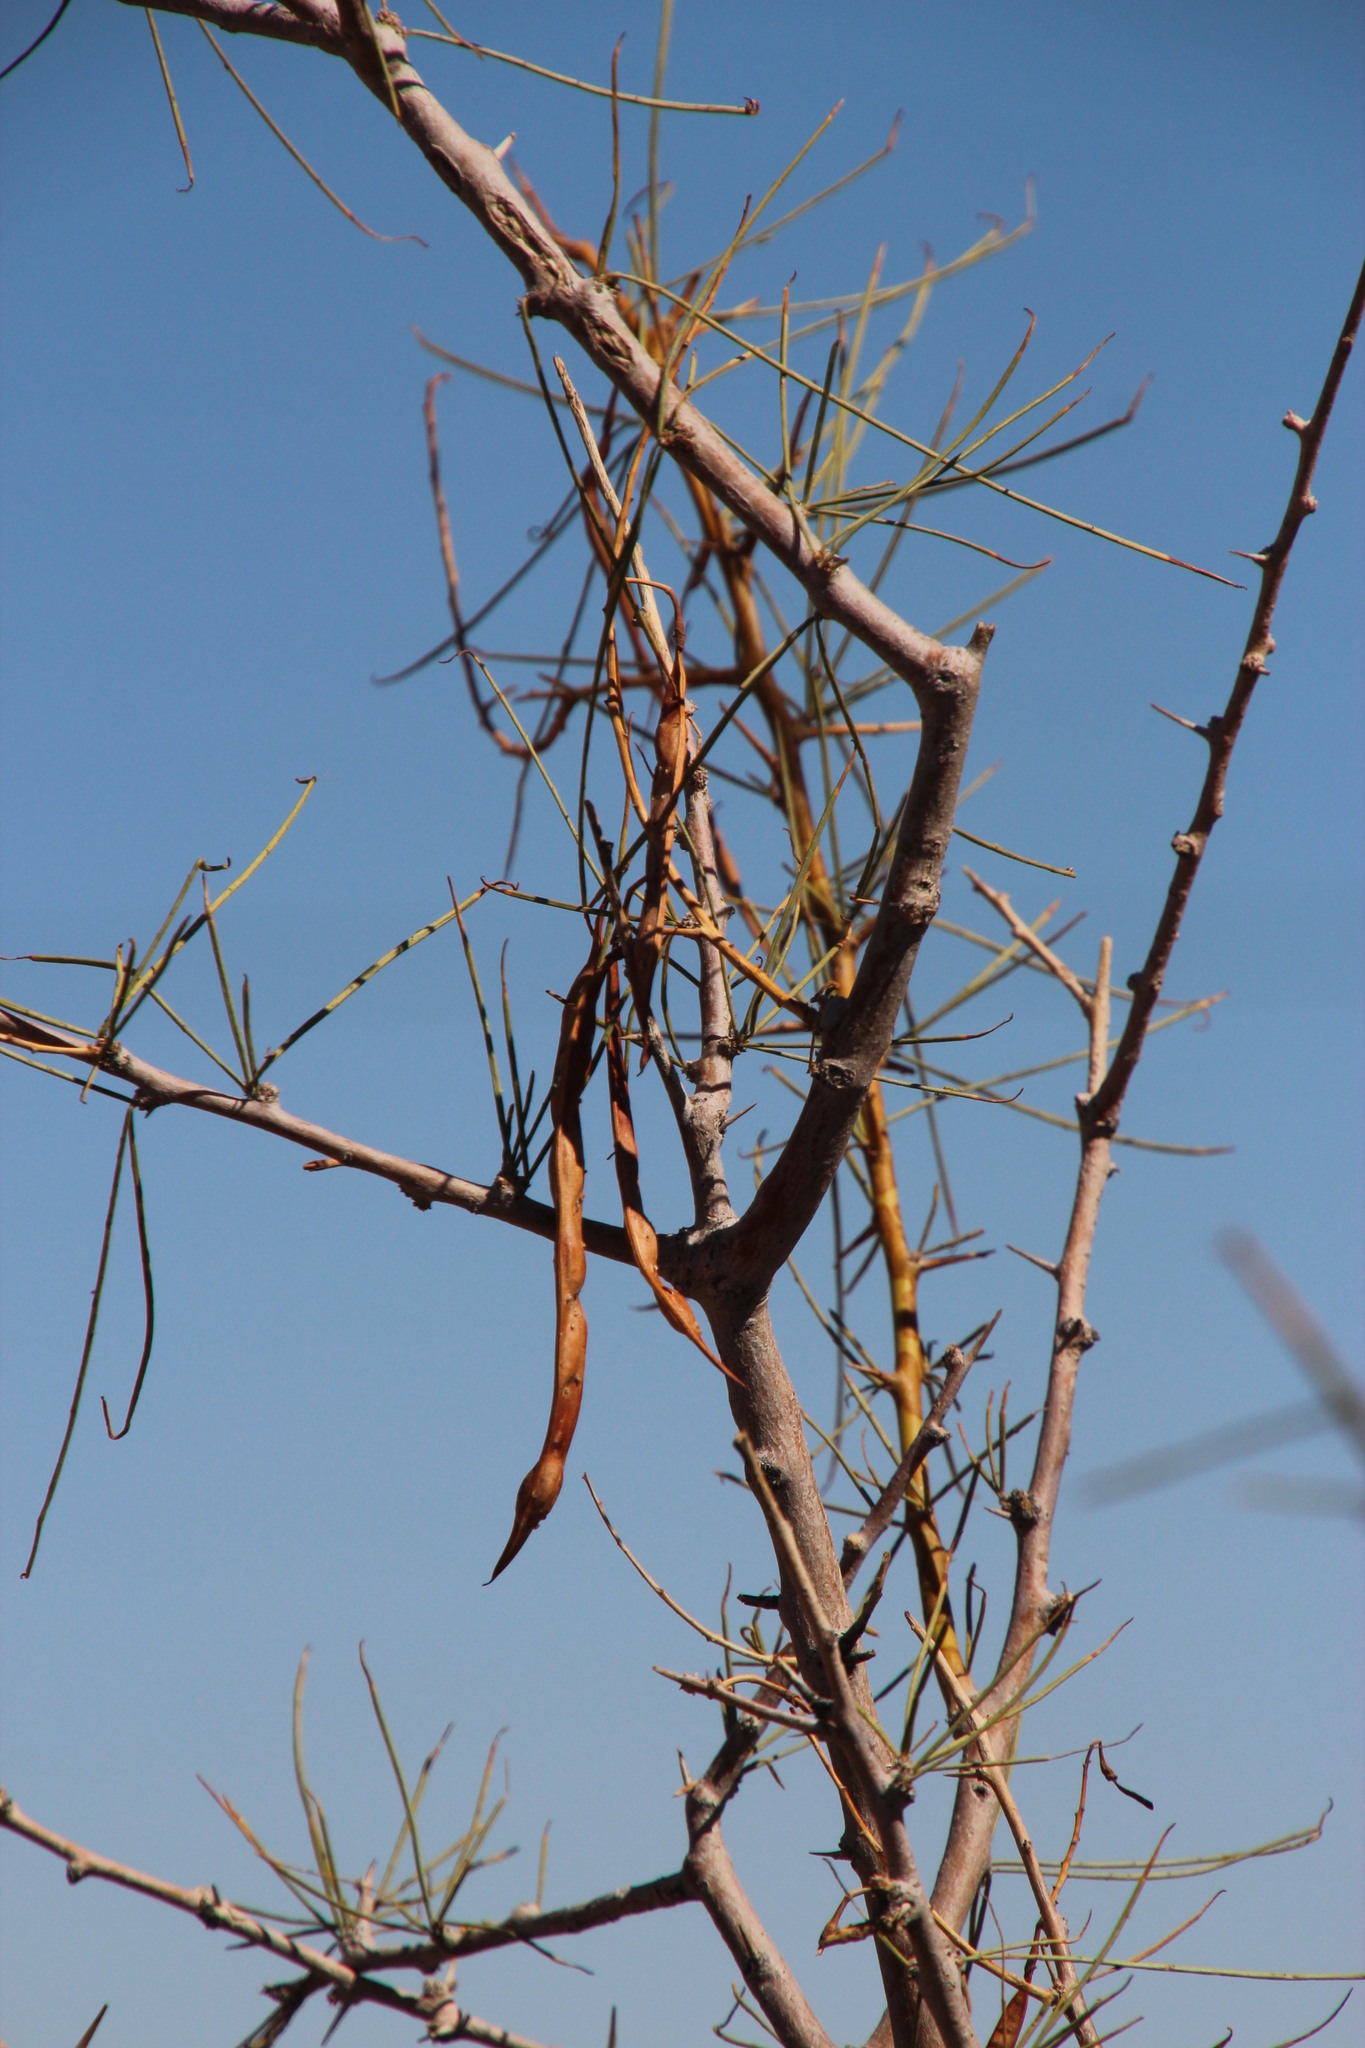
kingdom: Plantae
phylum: Tracheophyta
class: Magnoliopsida
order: Fabales
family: Fabaceae
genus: Parkinsonia
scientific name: Parkinsonia africana
